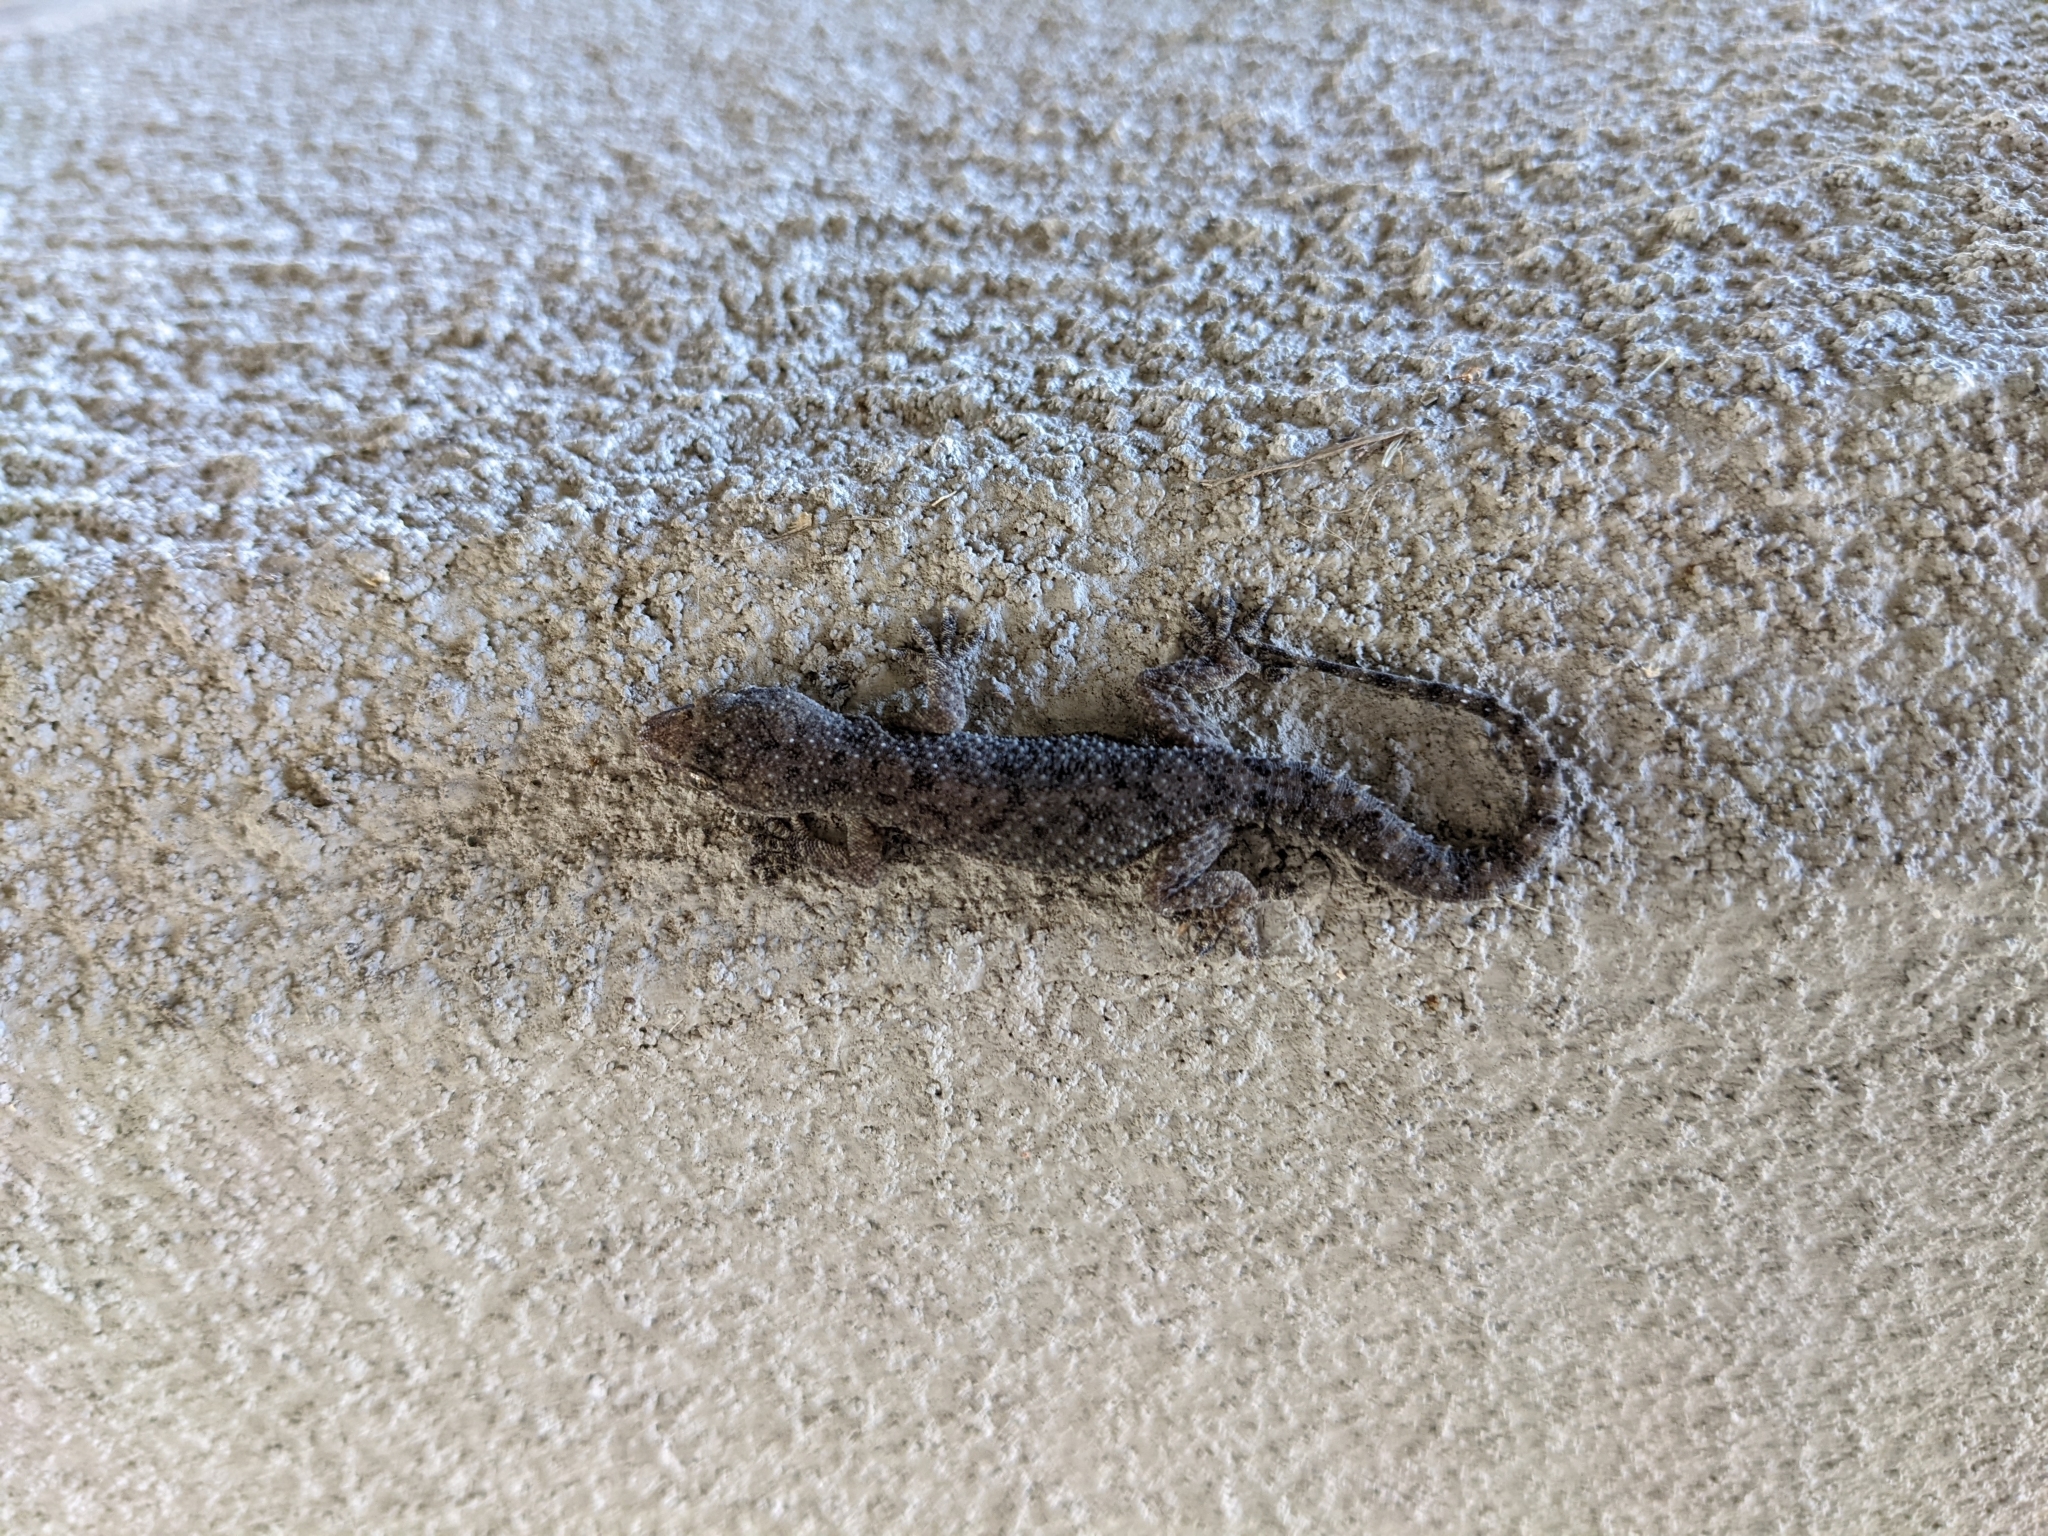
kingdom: Animalia
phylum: Chordata
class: Squamata
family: Gekkonidae
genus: Hemidactylus
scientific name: Hemidactylus parvimaculatus
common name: Spotted house gecko
